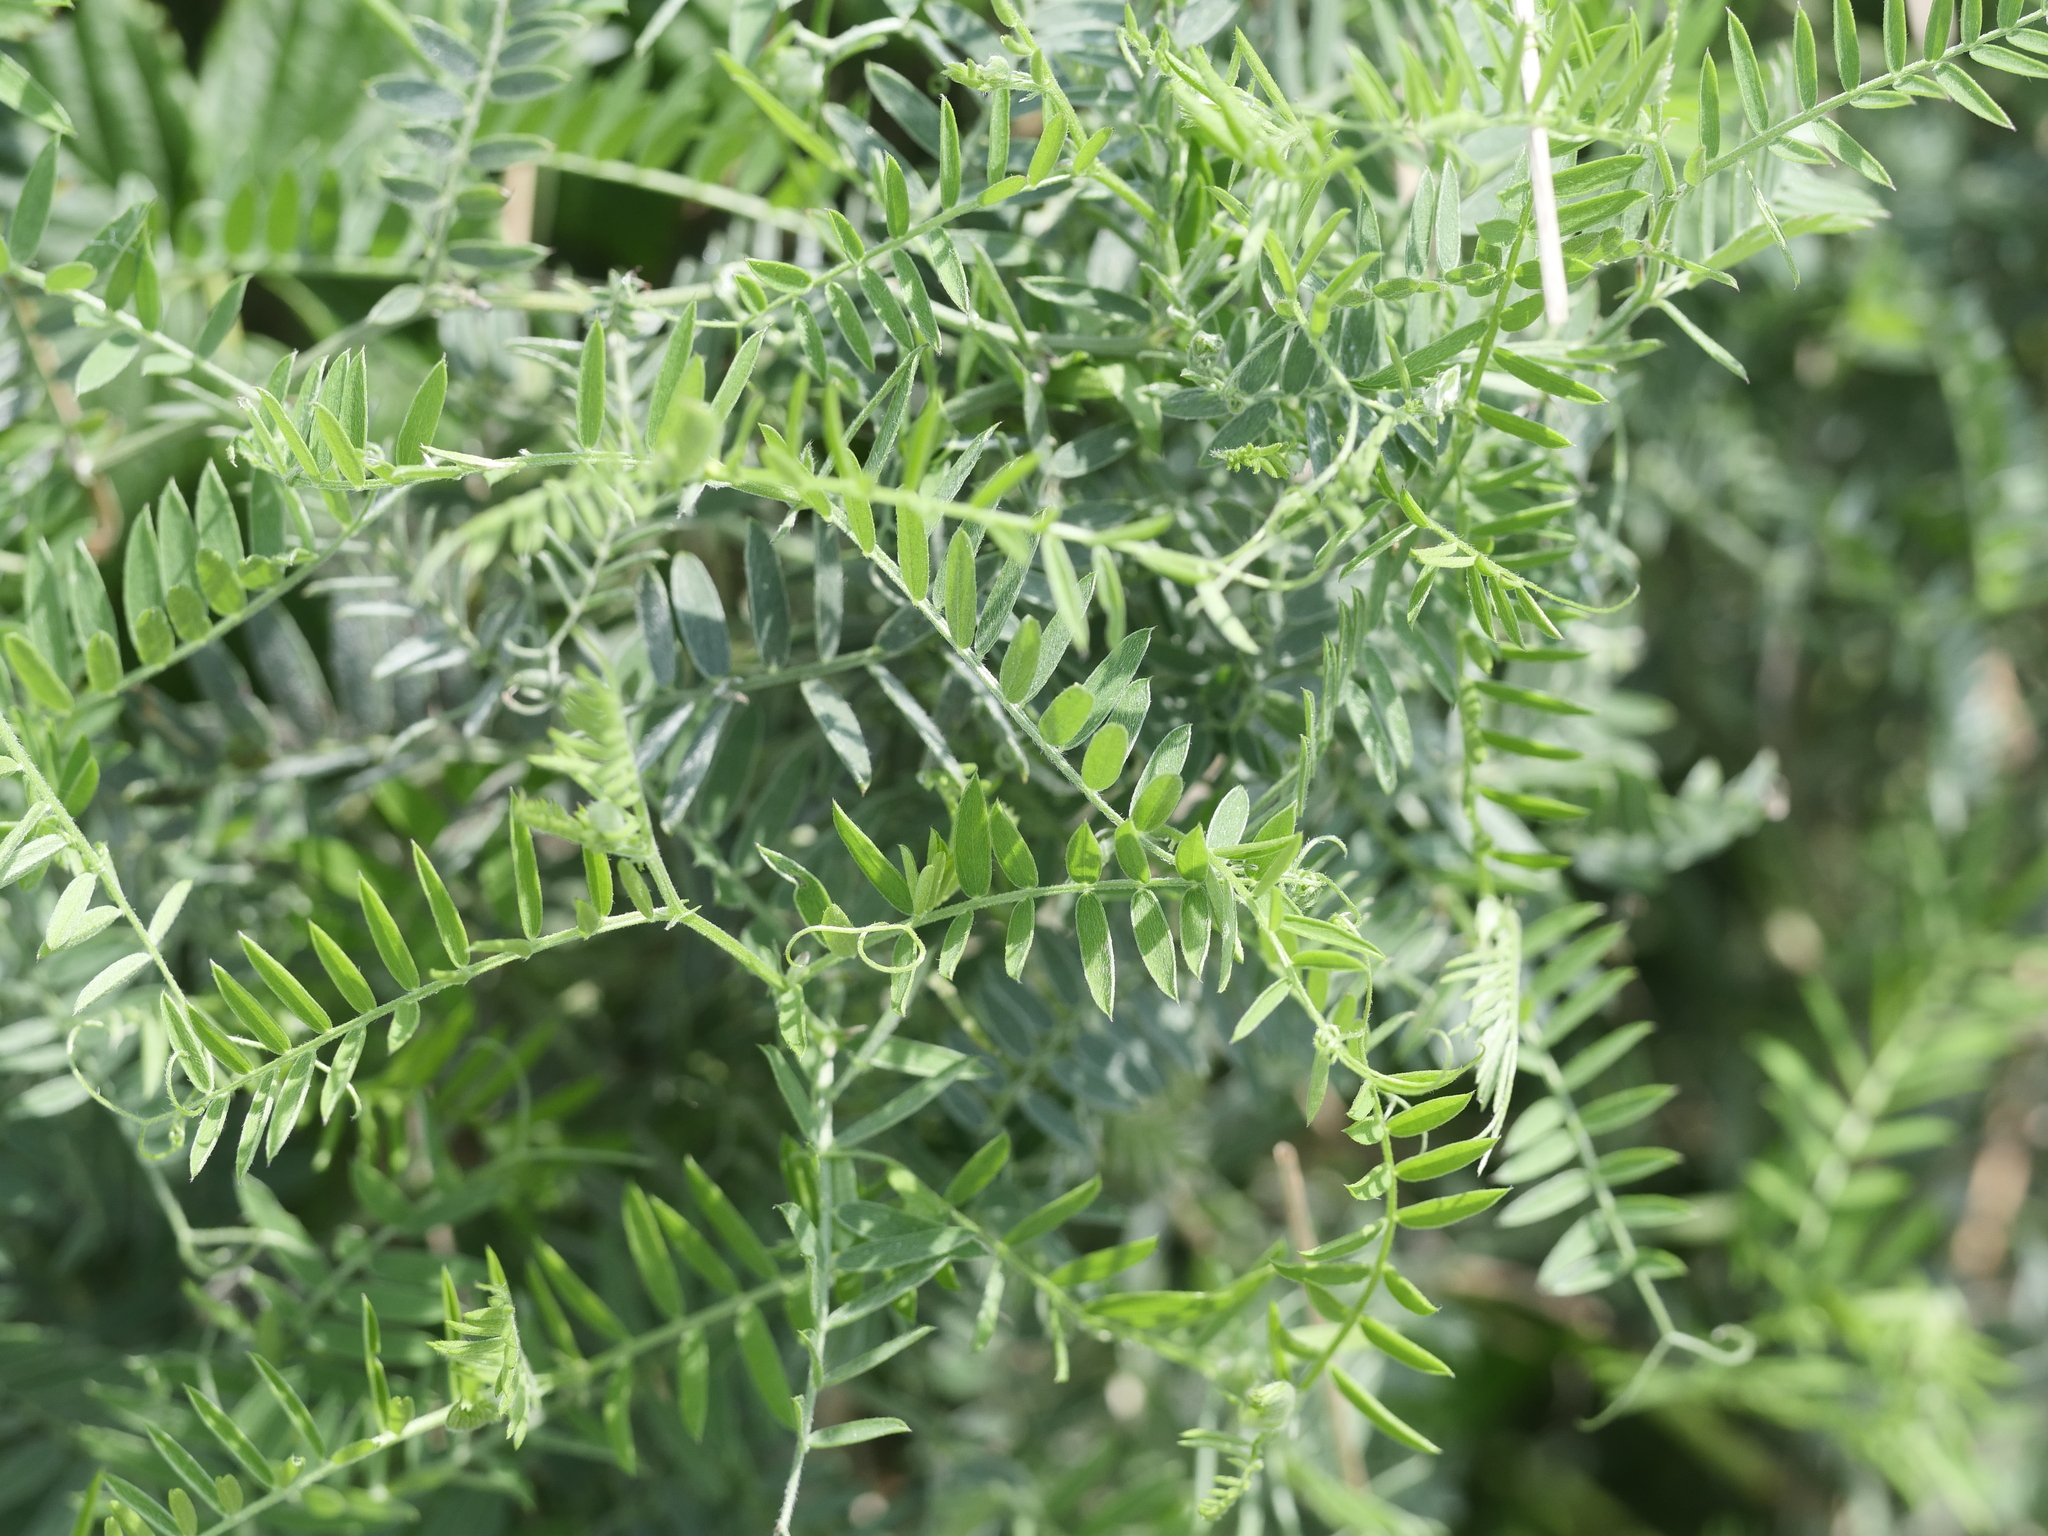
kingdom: Plantae
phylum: Tracheophyta
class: Magnoliopsida
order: Fabales
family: Fabaceae
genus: Vicia
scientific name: Vicia cracca
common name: Bird vetch
